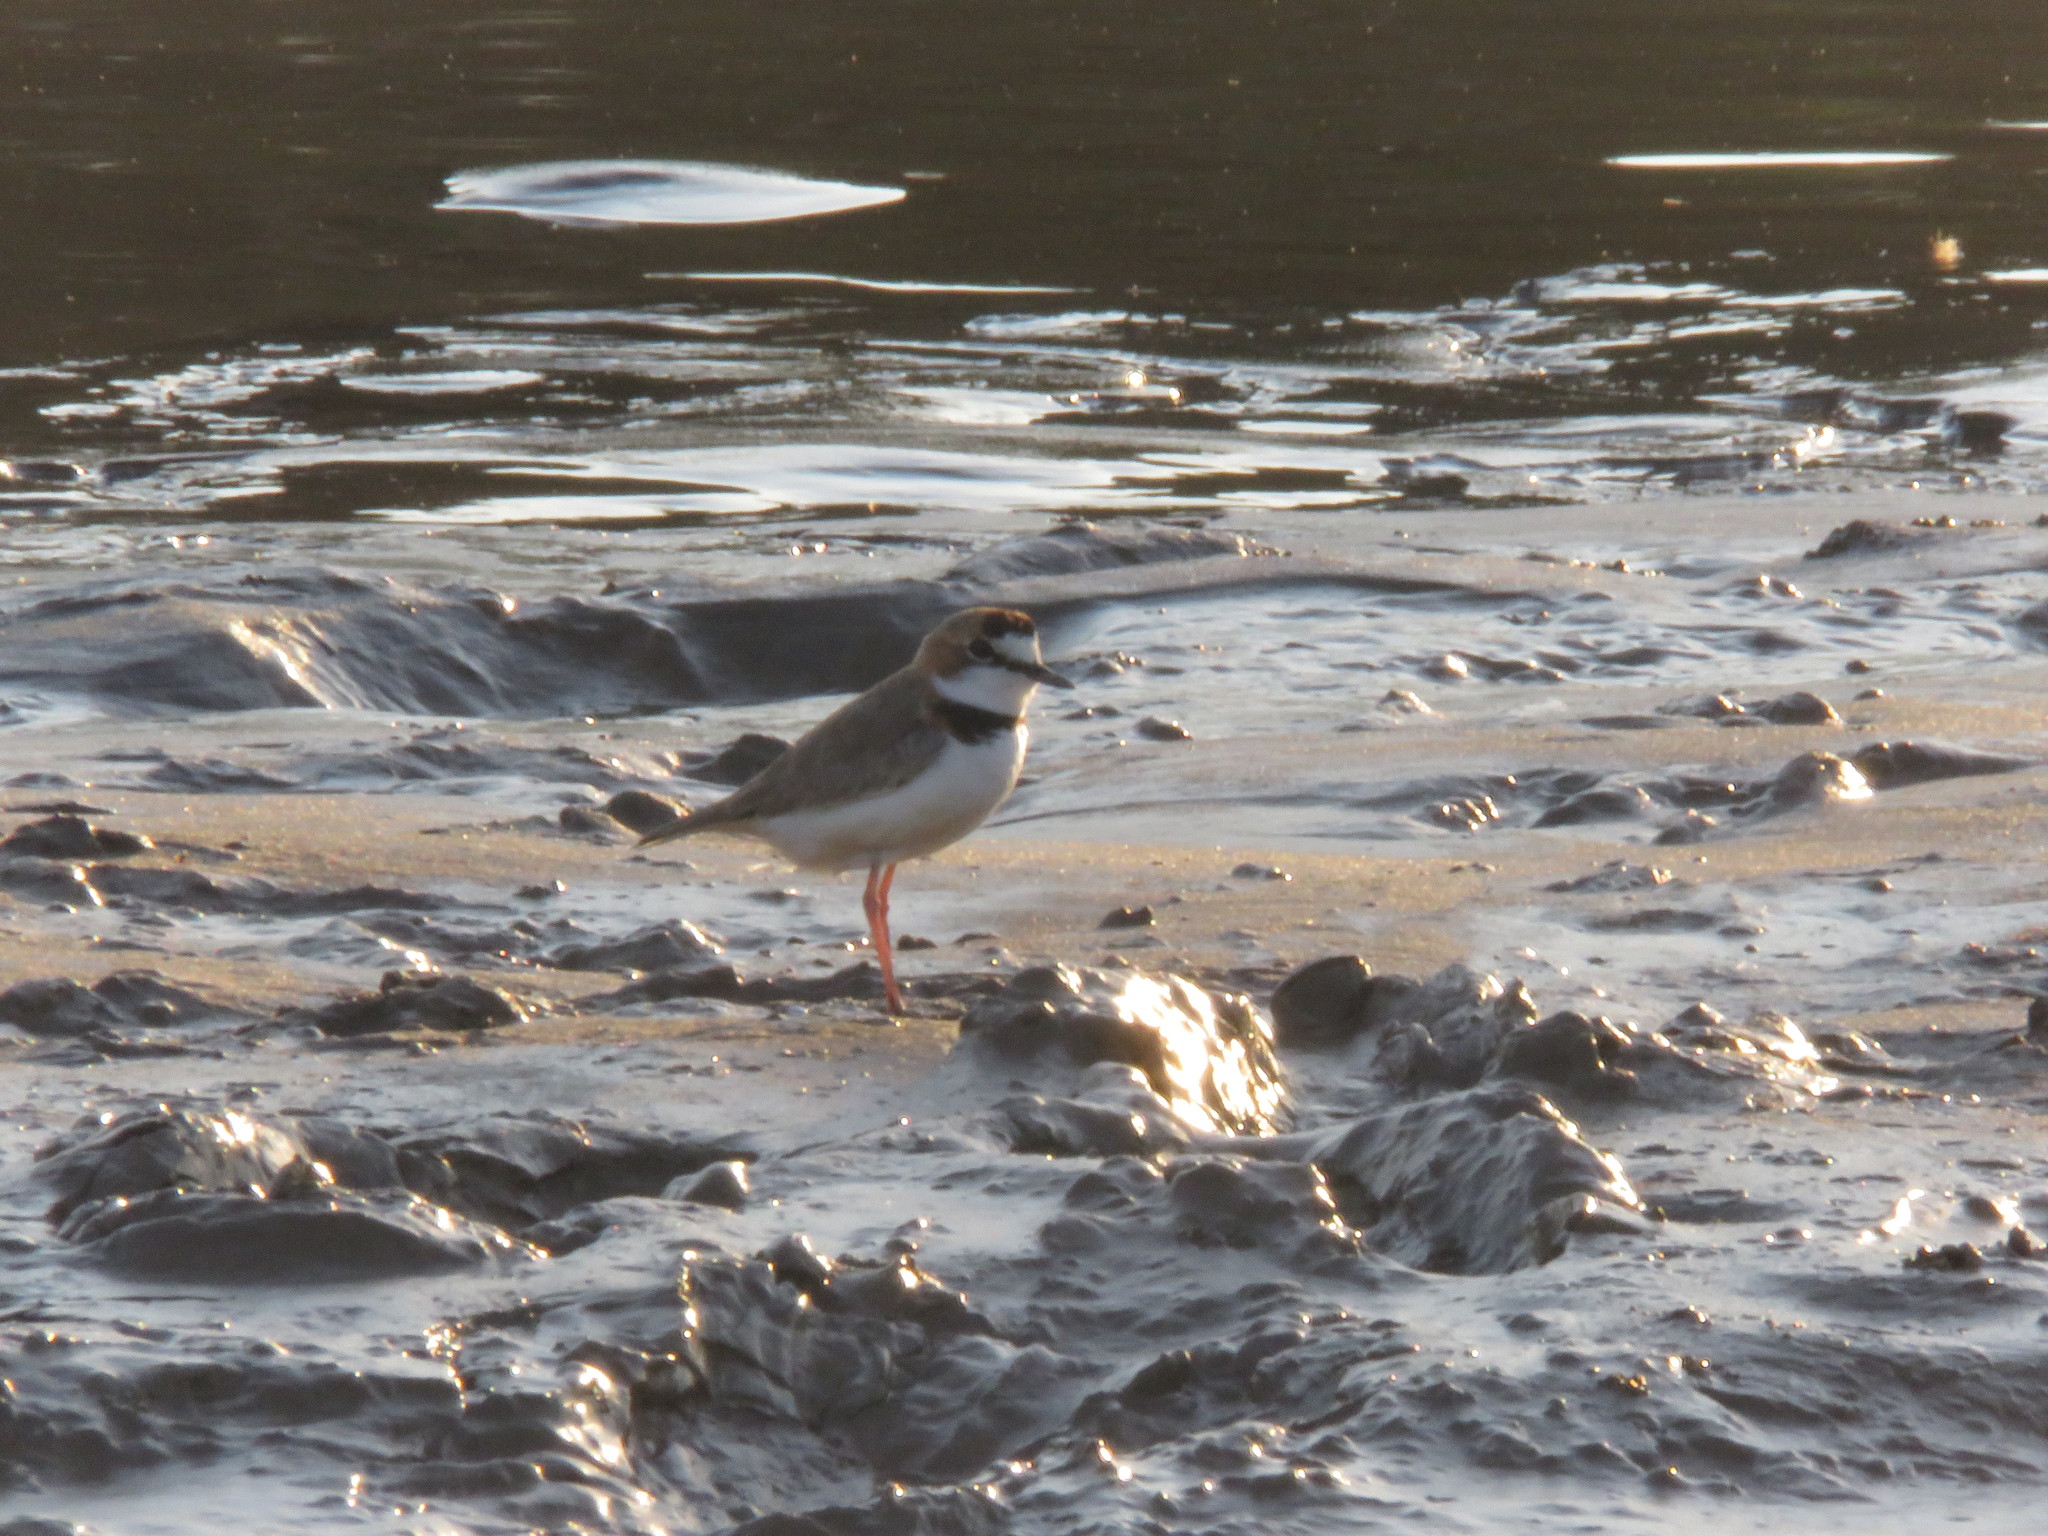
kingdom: Animalia
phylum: Chordata
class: Aves
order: Charadriiformes
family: Charadriidae
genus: Anarhynchus
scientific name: Anarhynchus
